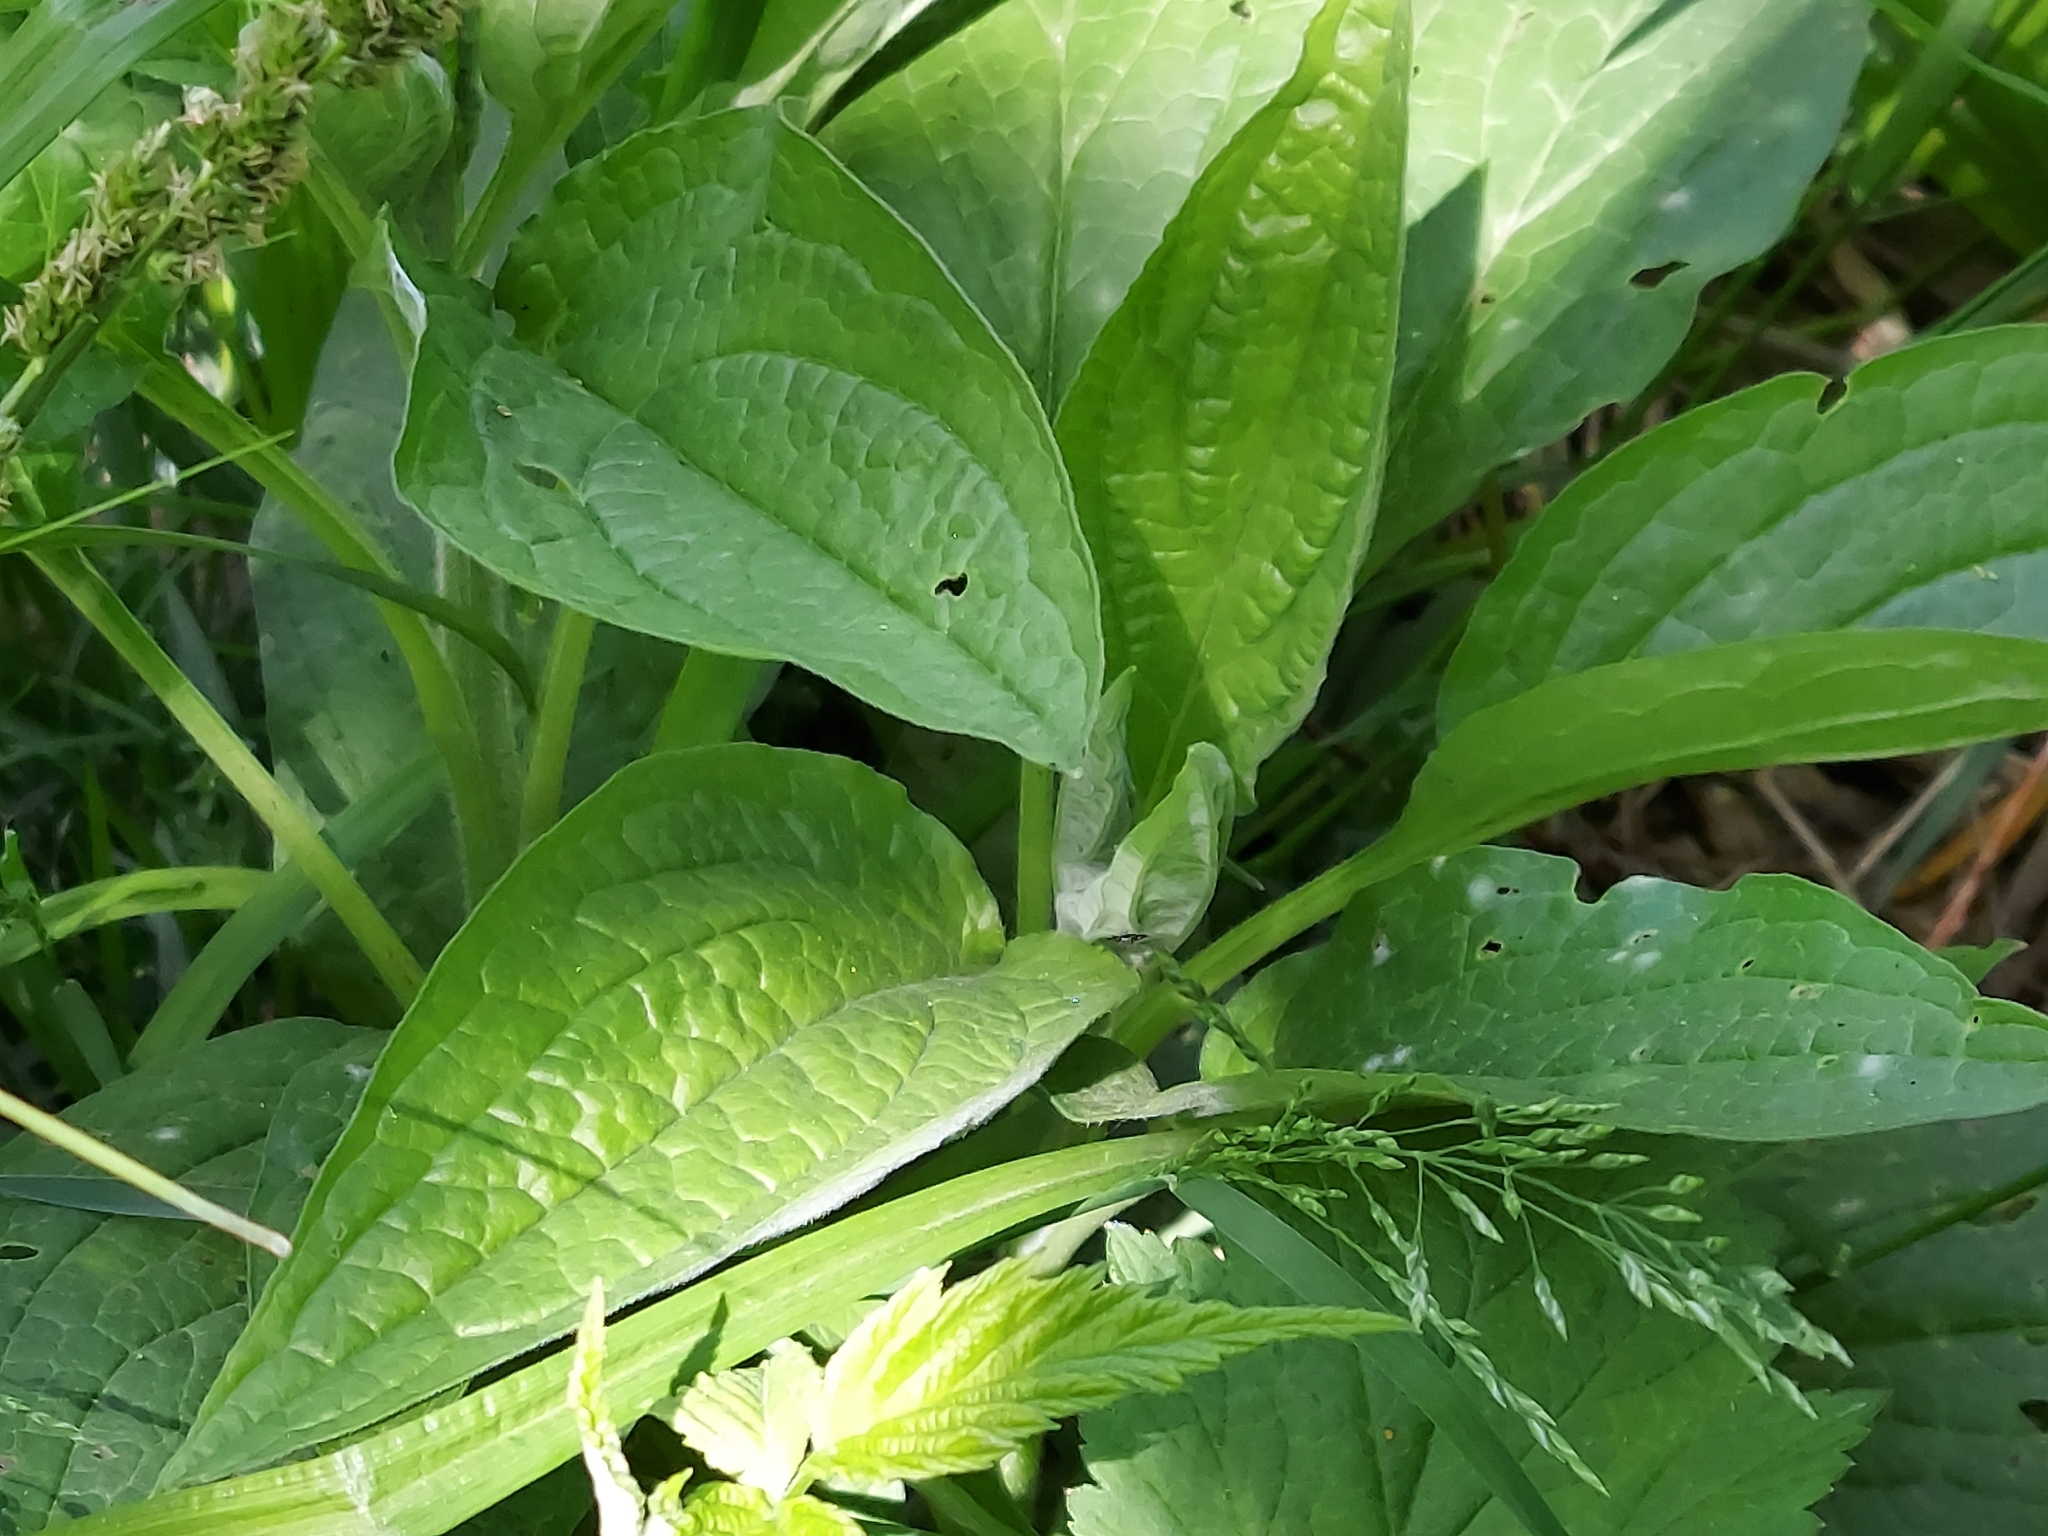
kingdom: Plantae
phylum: Tracheophyta
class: Magnoliopsida
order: Boraginales
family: Boraginaceae
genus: Hackelia
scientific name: Hackelia virginiana
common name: Beggar's-lice
